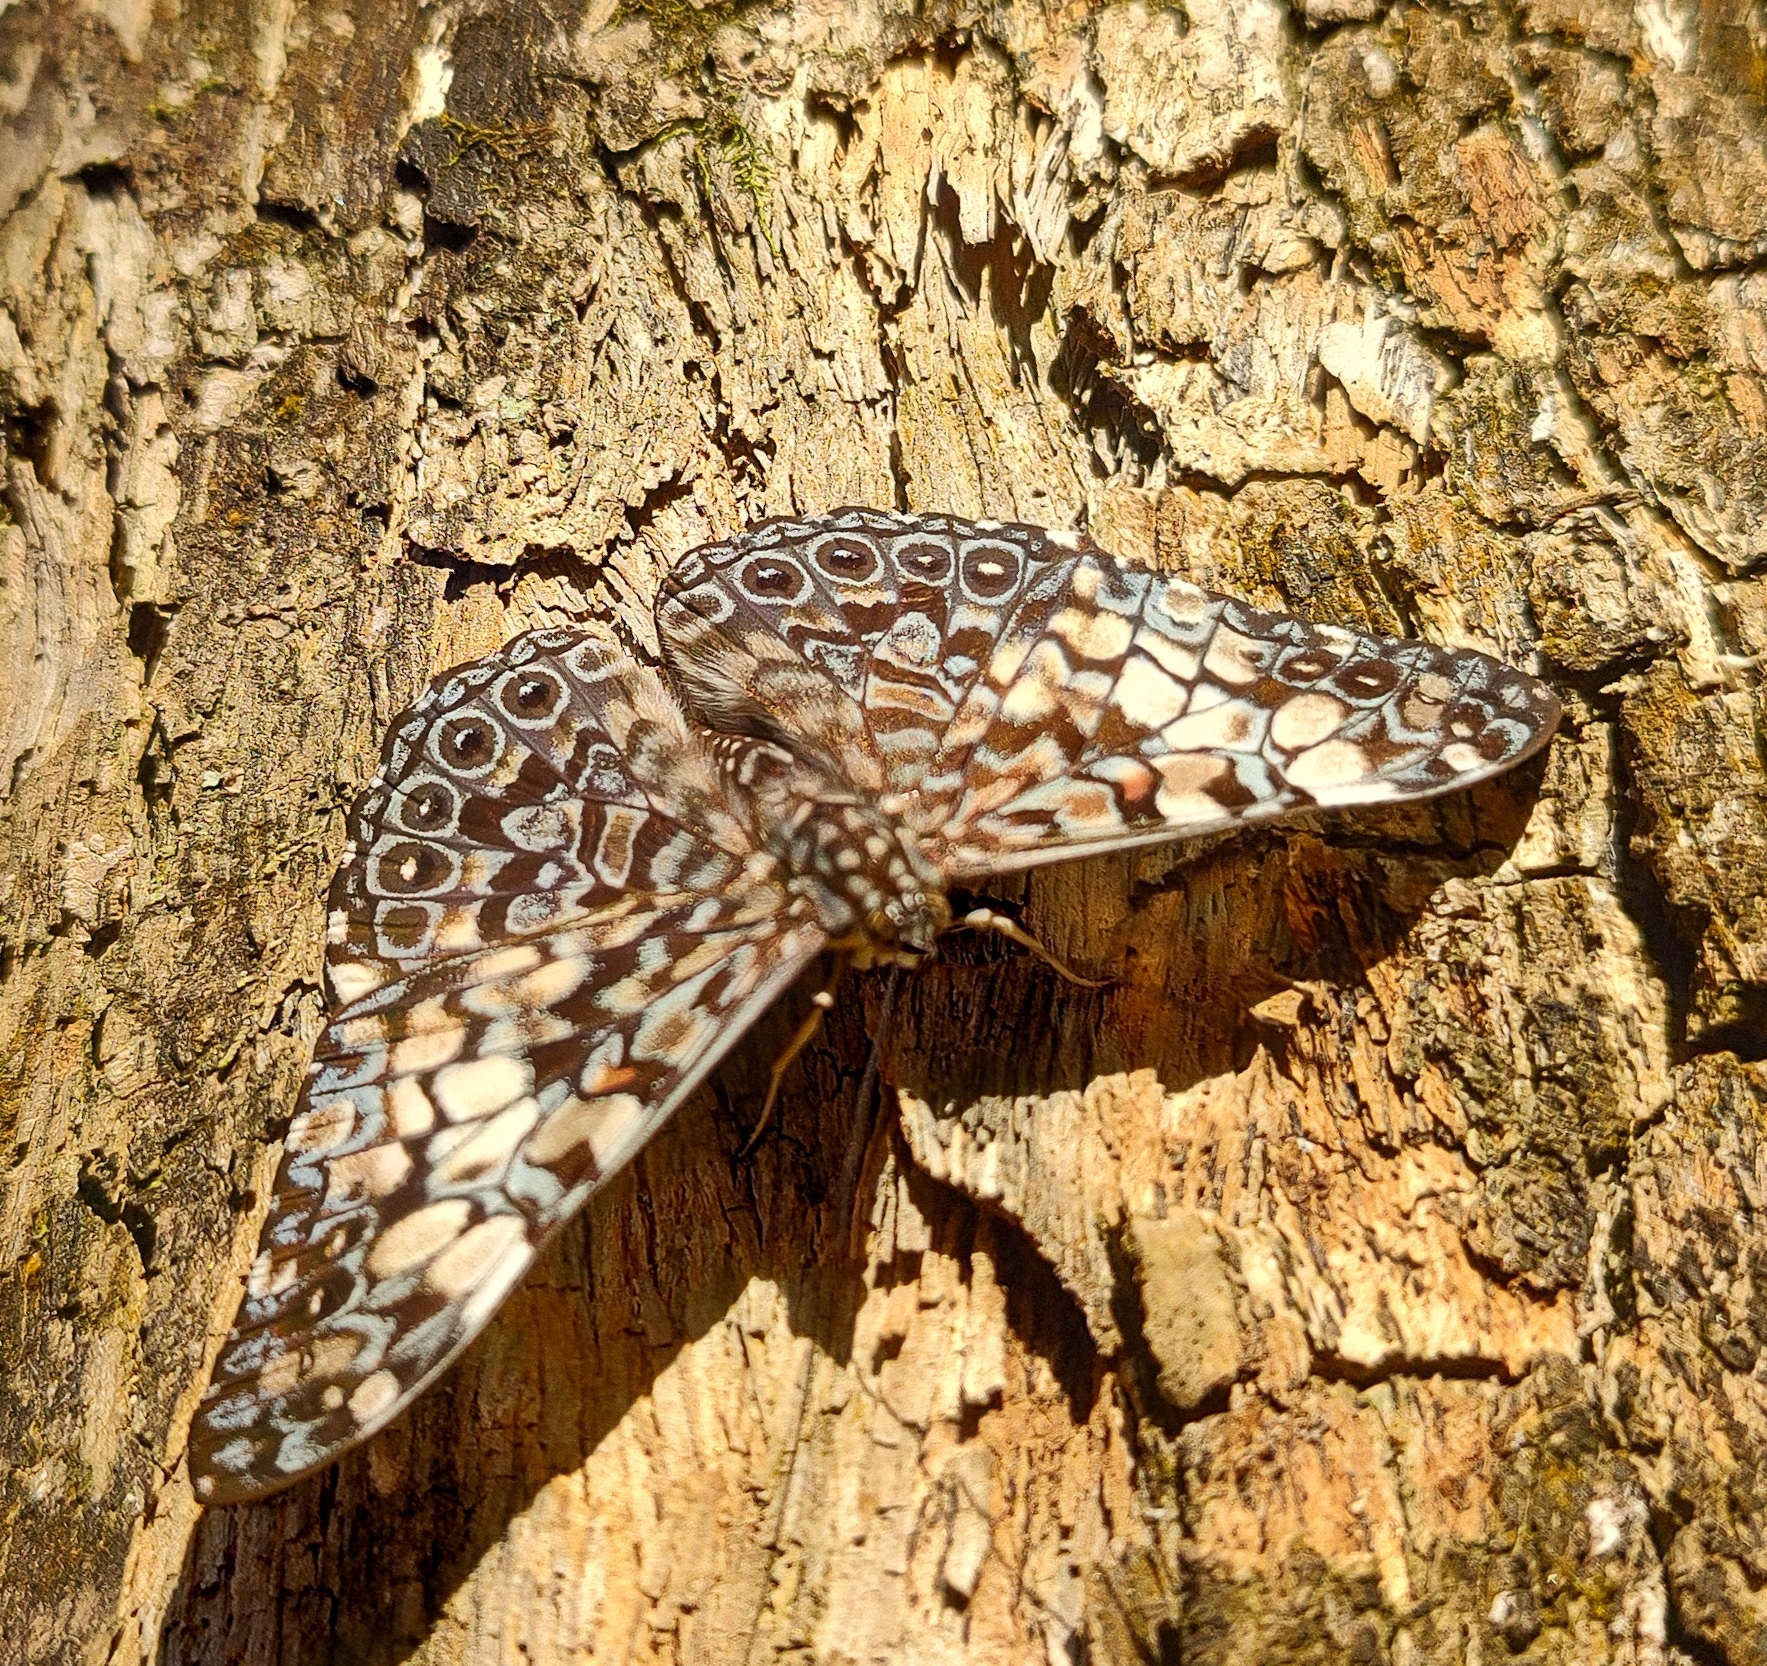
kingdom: Animalia
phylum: Arthropoda
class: Insecta
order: Lepidoptera
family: Nymphalidae
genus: Hamadryas
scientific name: Hamadryas fornax
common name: Orange cracker
